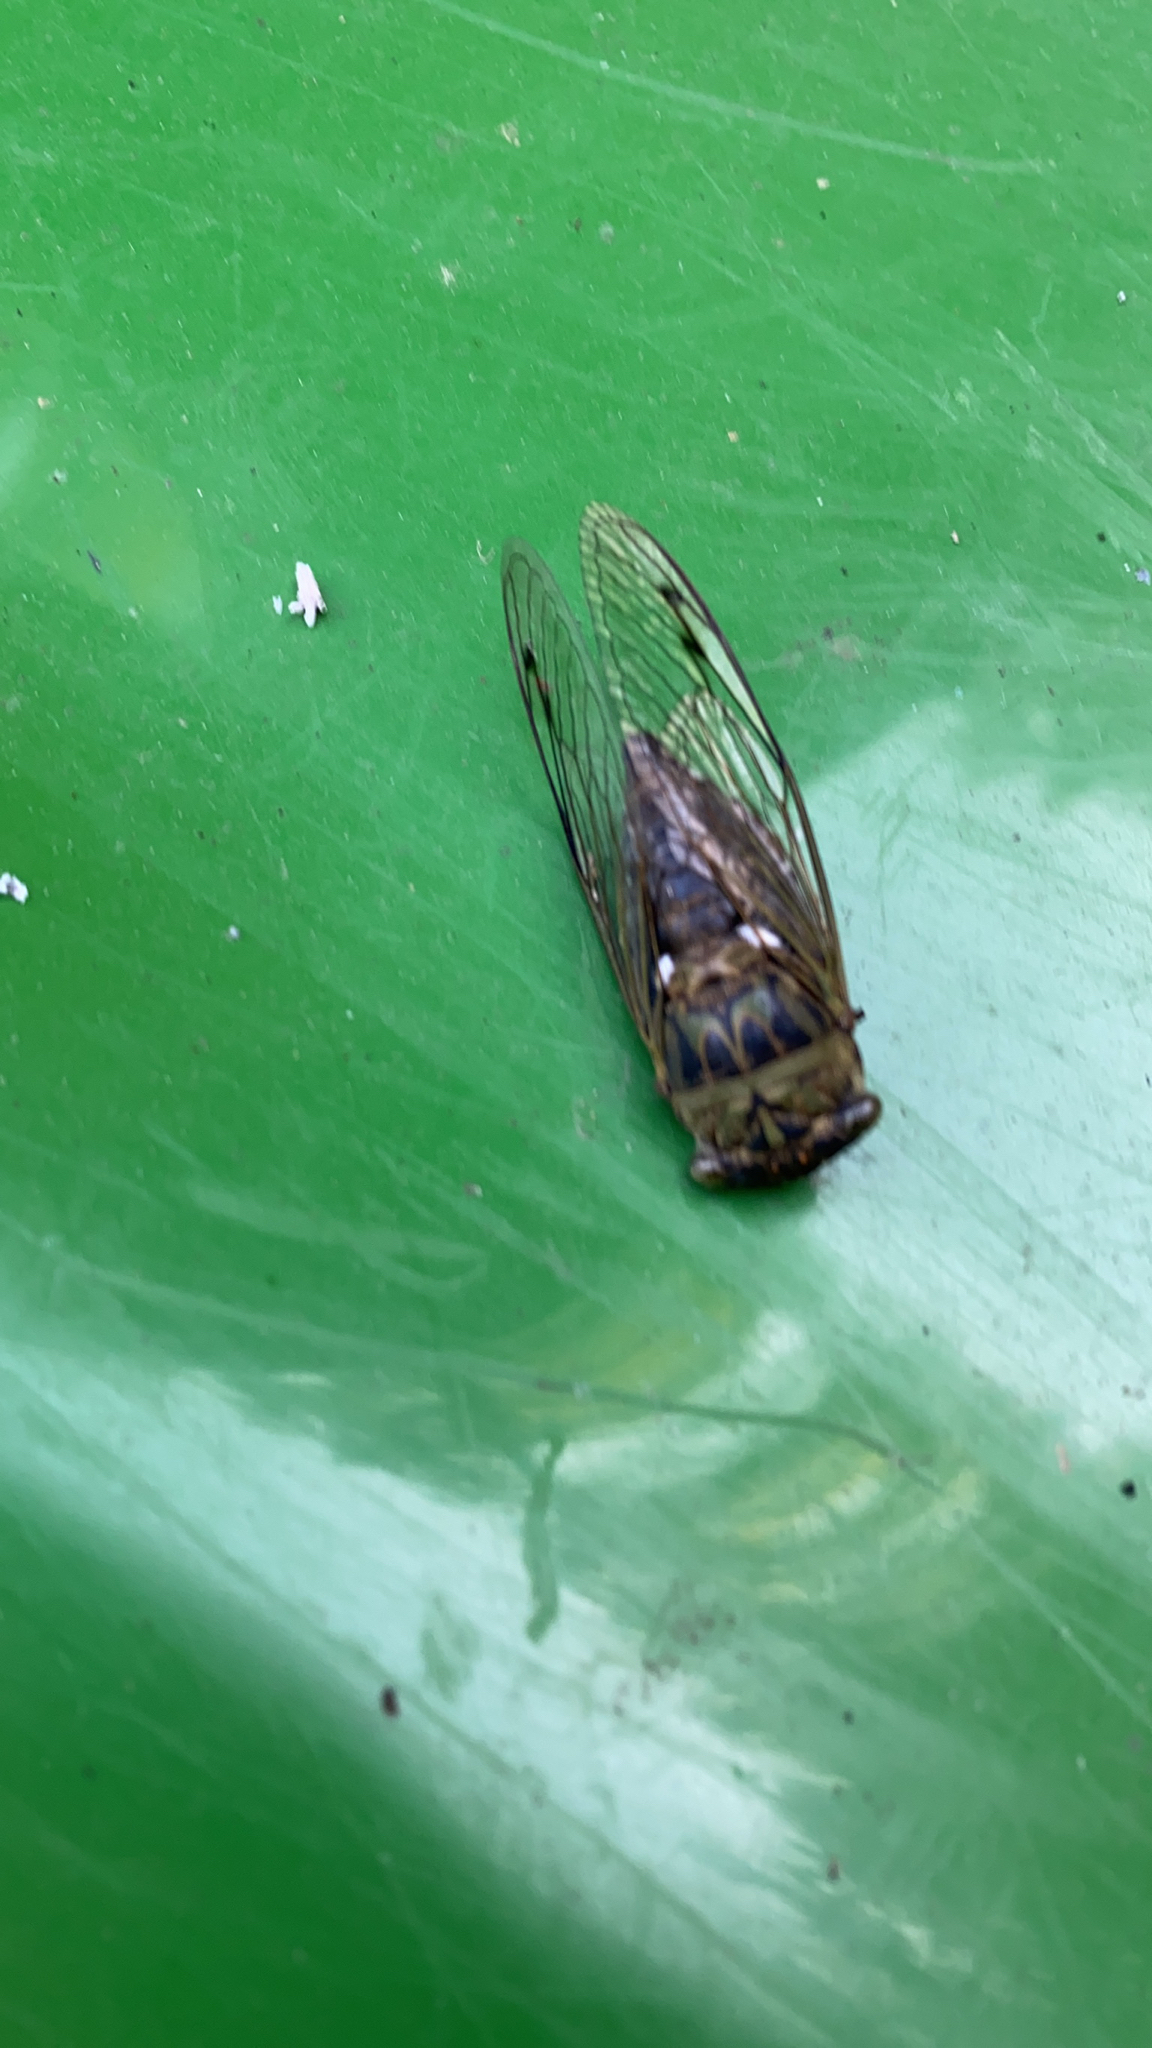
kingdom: Animalia
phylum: Arthropoda
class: Insecta
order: Hemiptera
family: Cicadidae
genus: Neotibicen
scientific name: Neotibicen pruinosus
